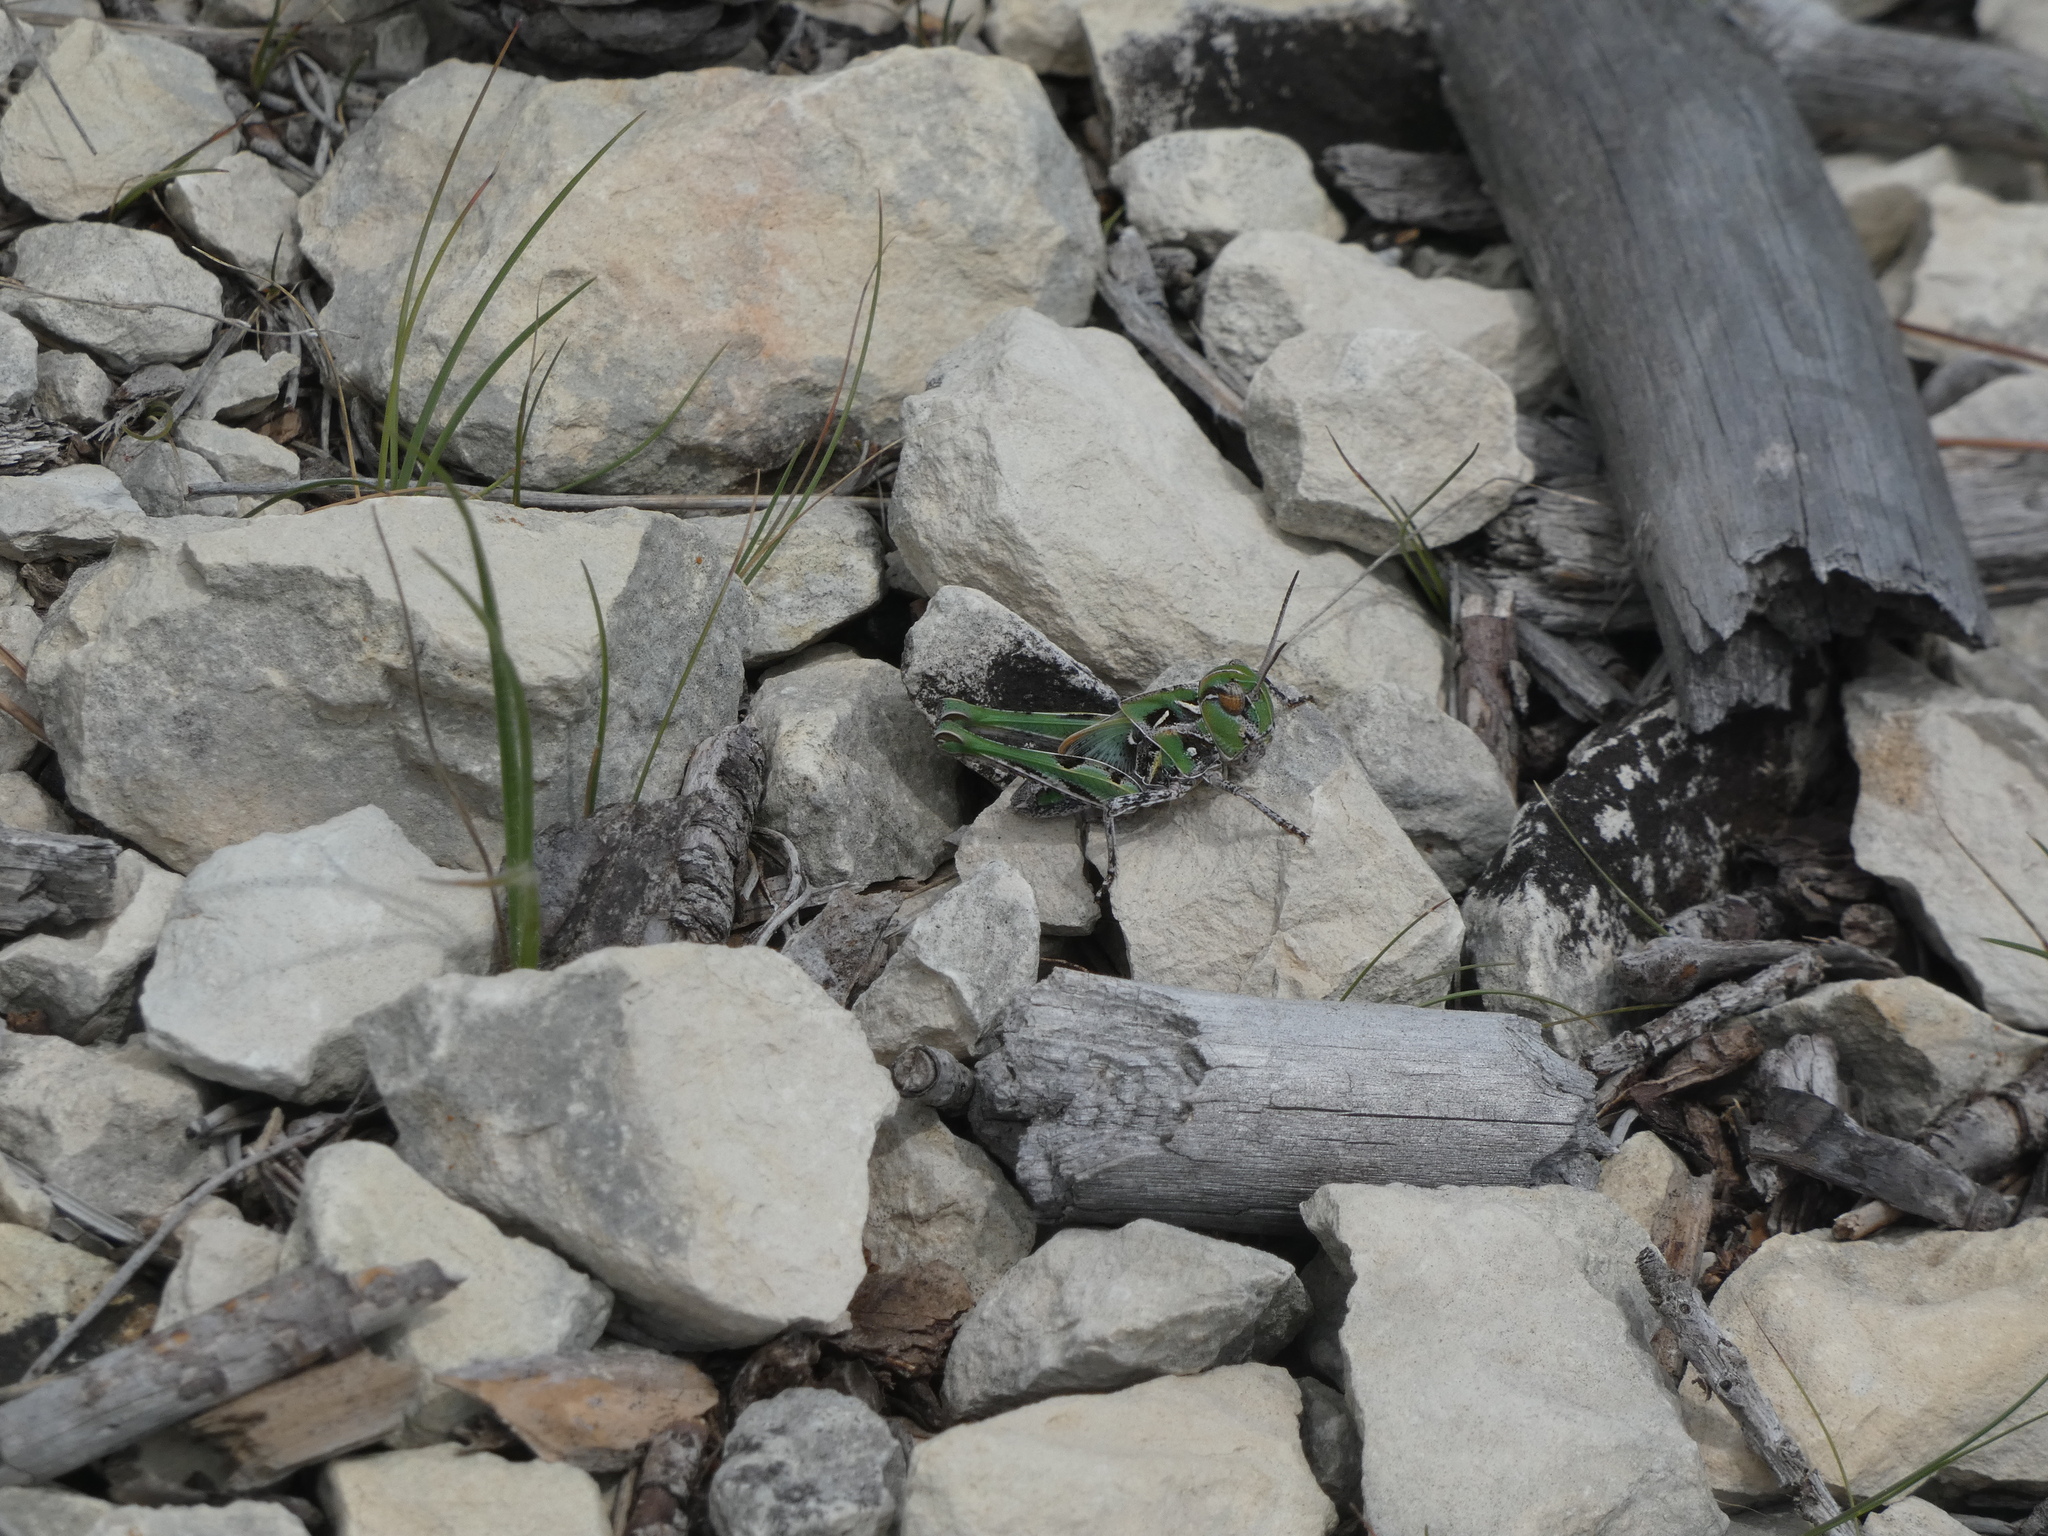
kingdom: Animalia
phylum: Arthropoda
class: Insecta
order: Orthoptera
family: Acrididae
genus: Oedaleus
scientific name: Oedaleus decorus
